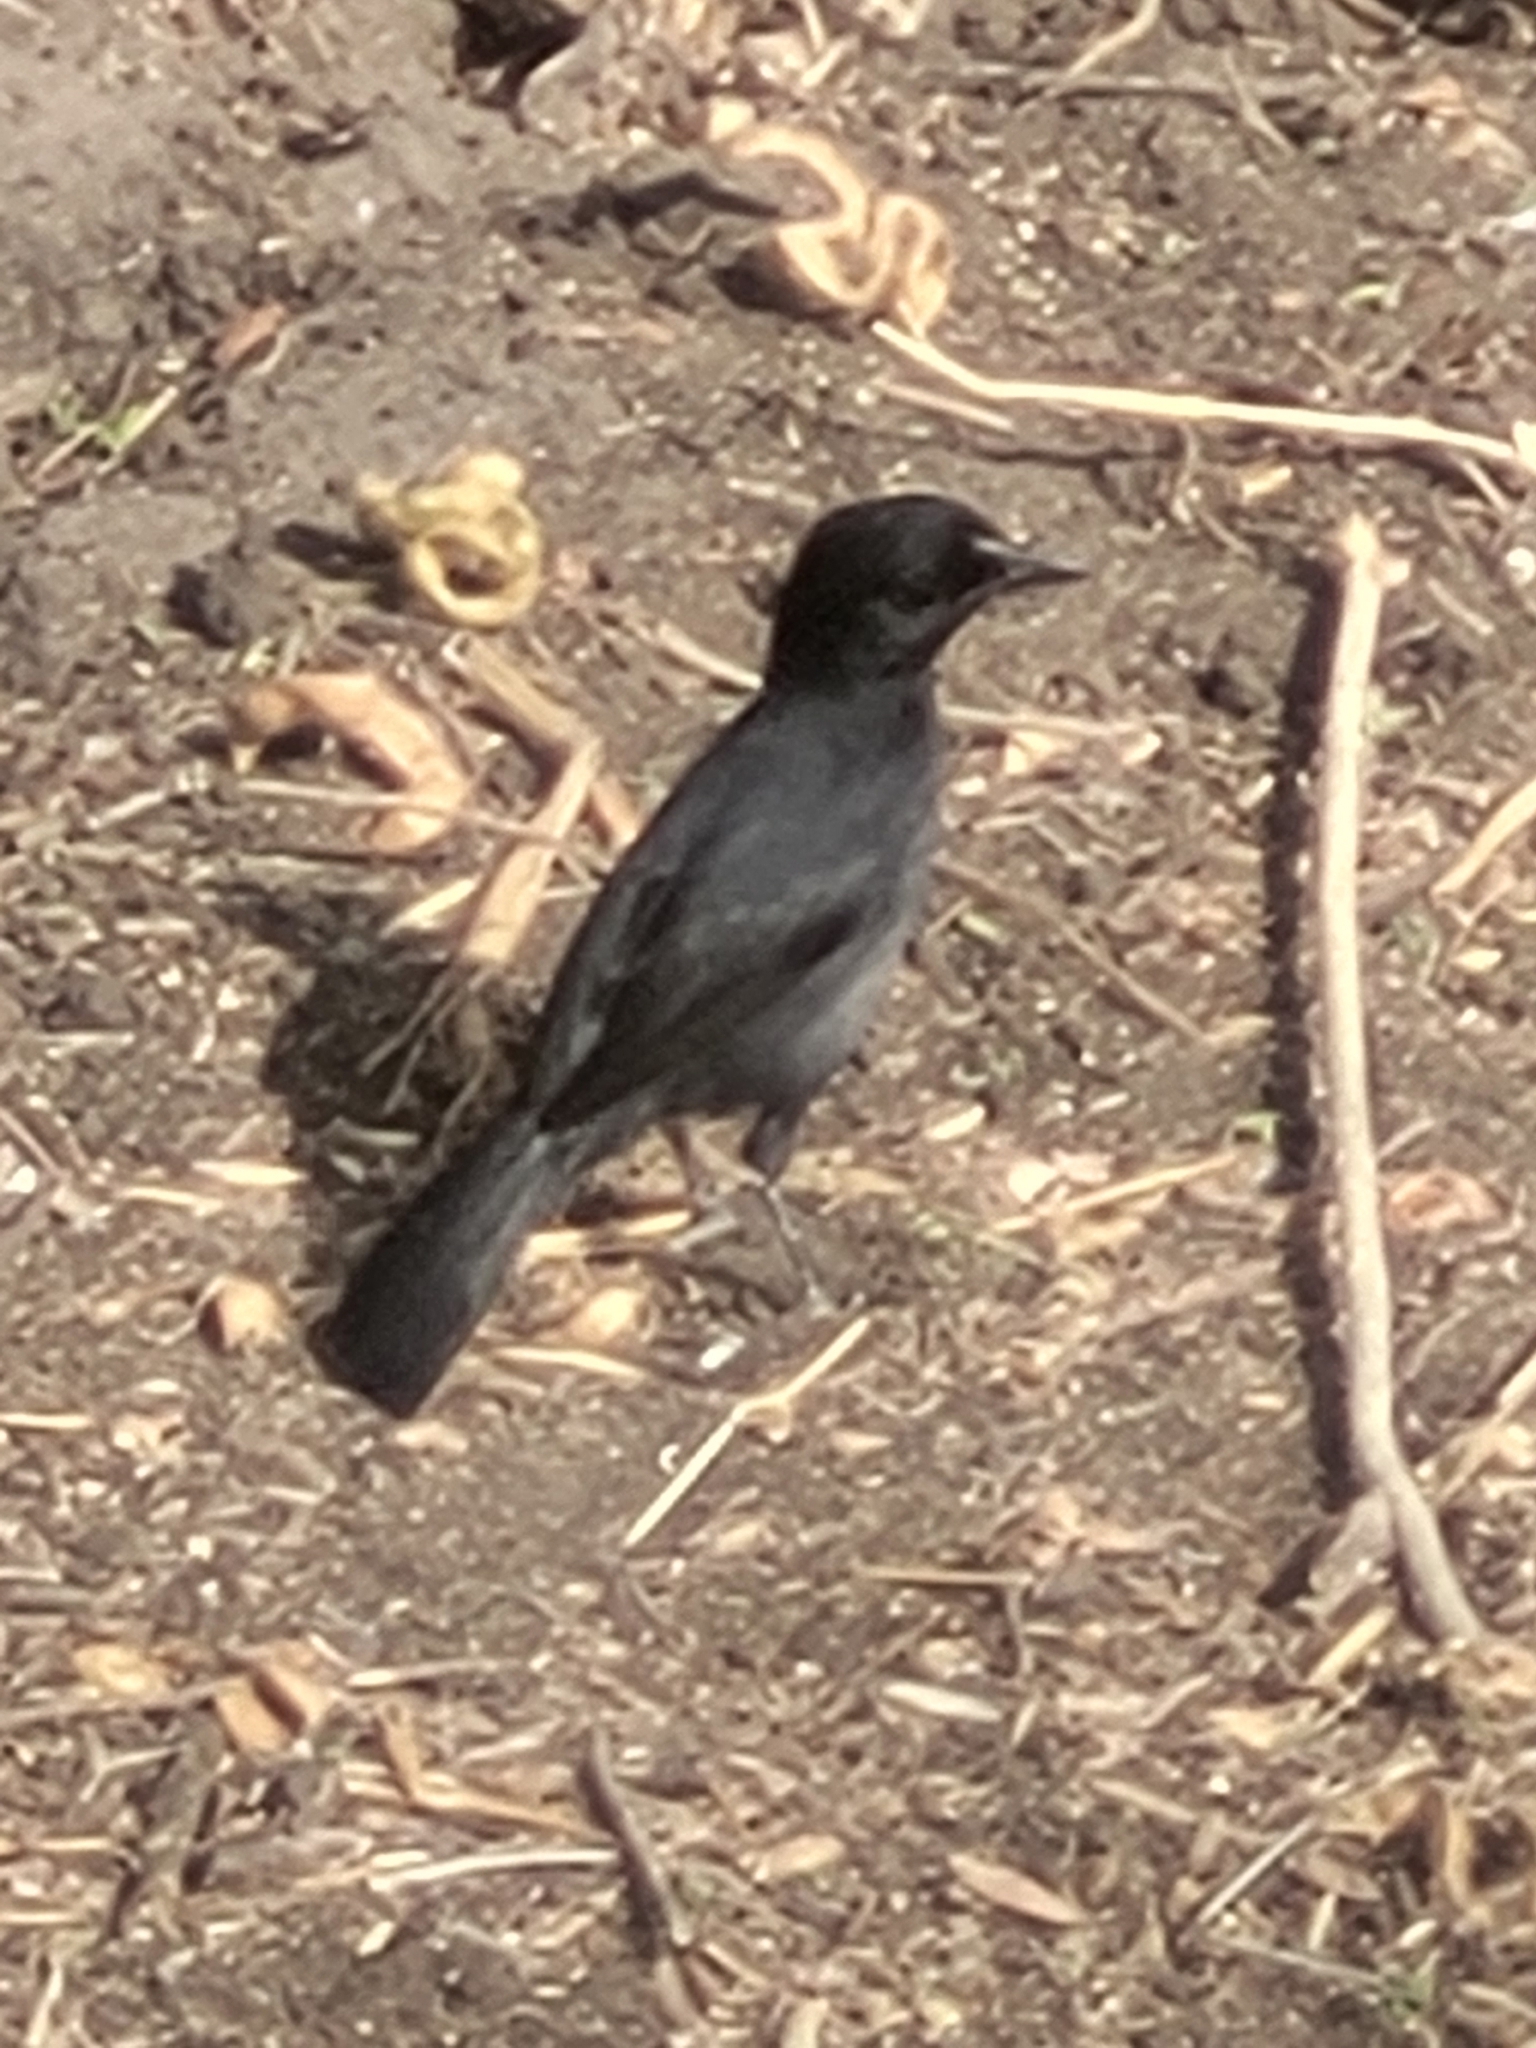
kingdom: Animalia
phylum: Chordata
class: Aves
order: Passeriformes
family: Malaconotidae
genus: Laniarius
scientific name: Laniarius funebris
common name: Slate-colored boubou
